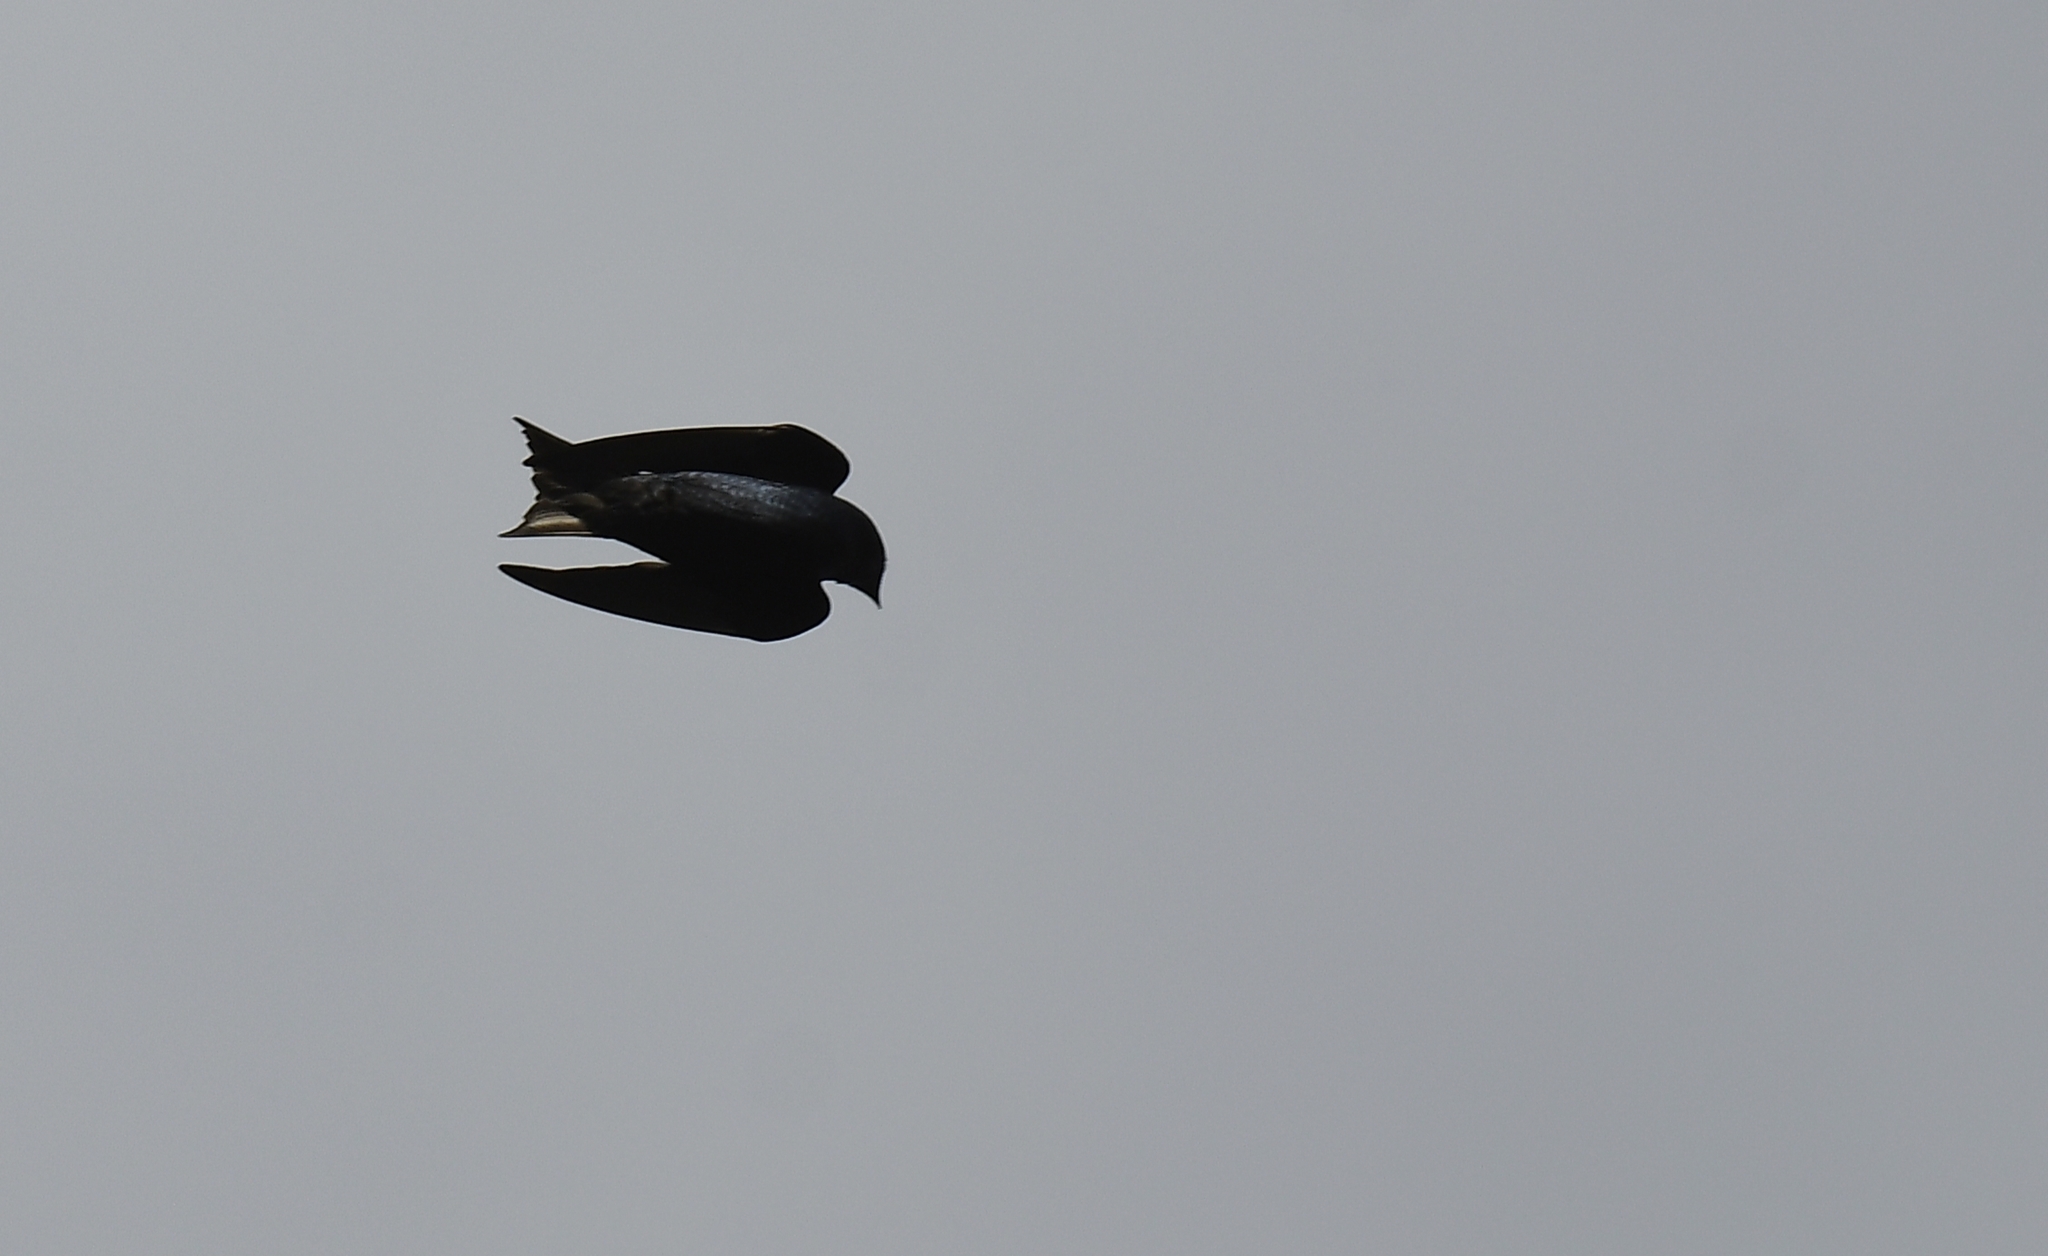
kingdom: Animalia
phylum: Chordata
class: Aves
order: Passeriformes
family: Hirundinidae
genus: Progne
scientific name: Progne subis
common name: Purple martin
